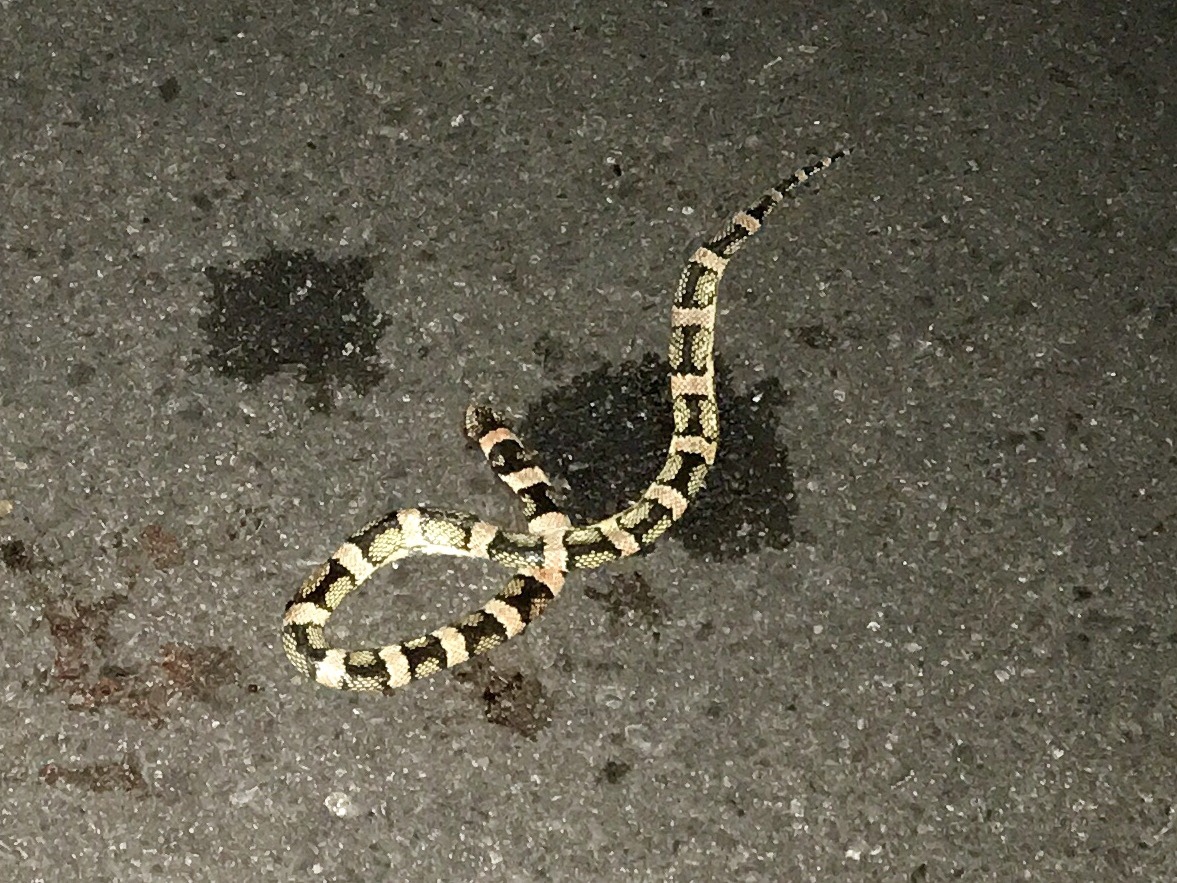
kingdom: Animalia
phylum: Chordata
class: Squamata
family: Colubridae
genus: Rhinocheilus
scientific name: Rhinocheilus lecontei
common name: Longnose snake
